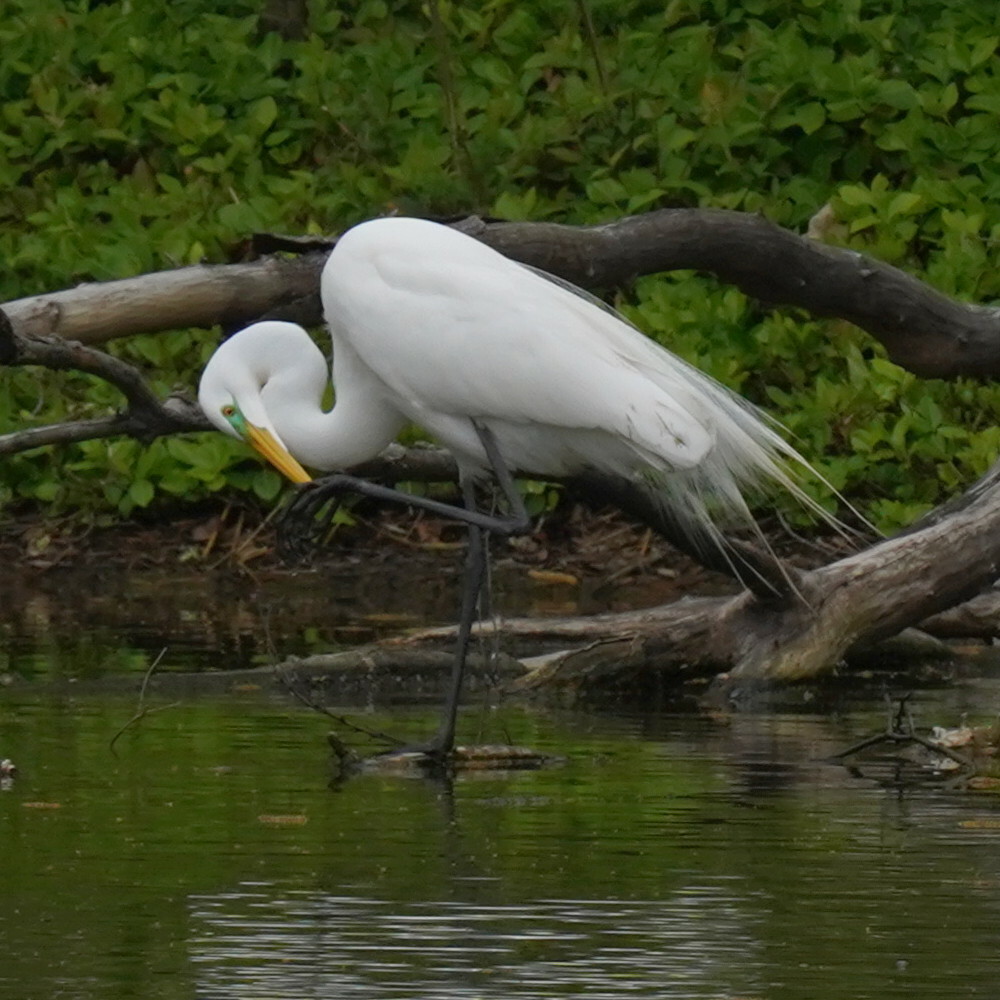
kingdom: Animalia
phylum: Chordata
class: Aves
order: Pelecaniformes
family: Ardeidae
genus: Ardea
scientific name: Ardea alba
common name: Great egret
